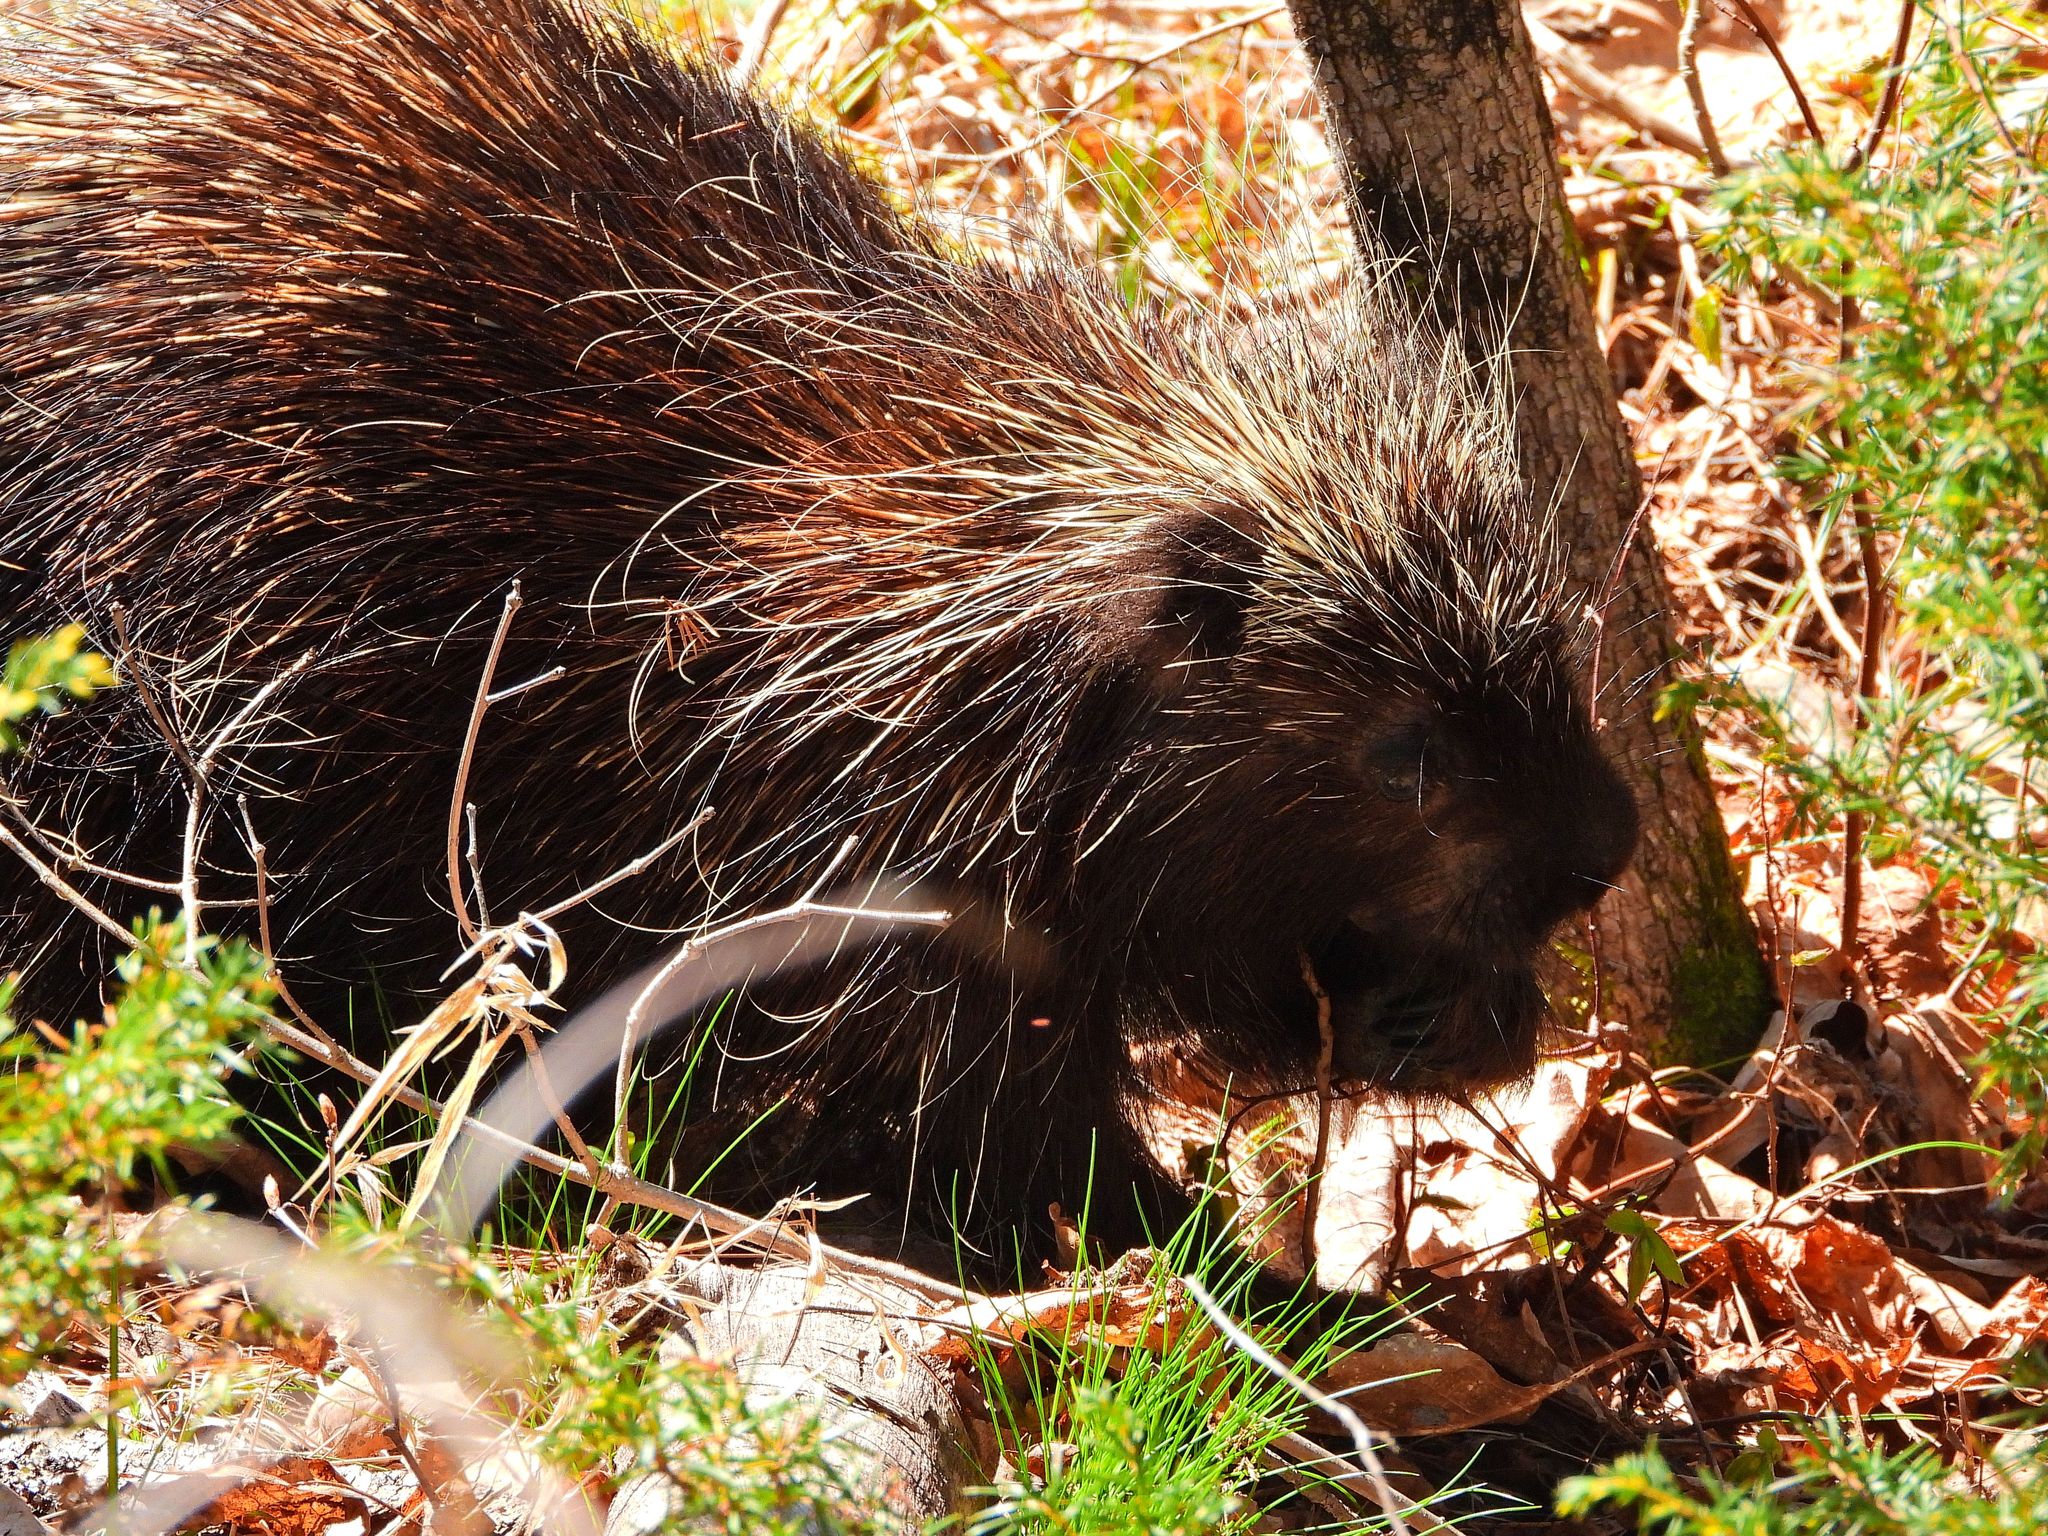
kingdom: Animalia
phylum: Chordata
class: Mammalia
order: Rodentia
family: Erethizontidae
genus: Erethizon
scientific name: Erethizon dorsatus
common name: North american porcupine
